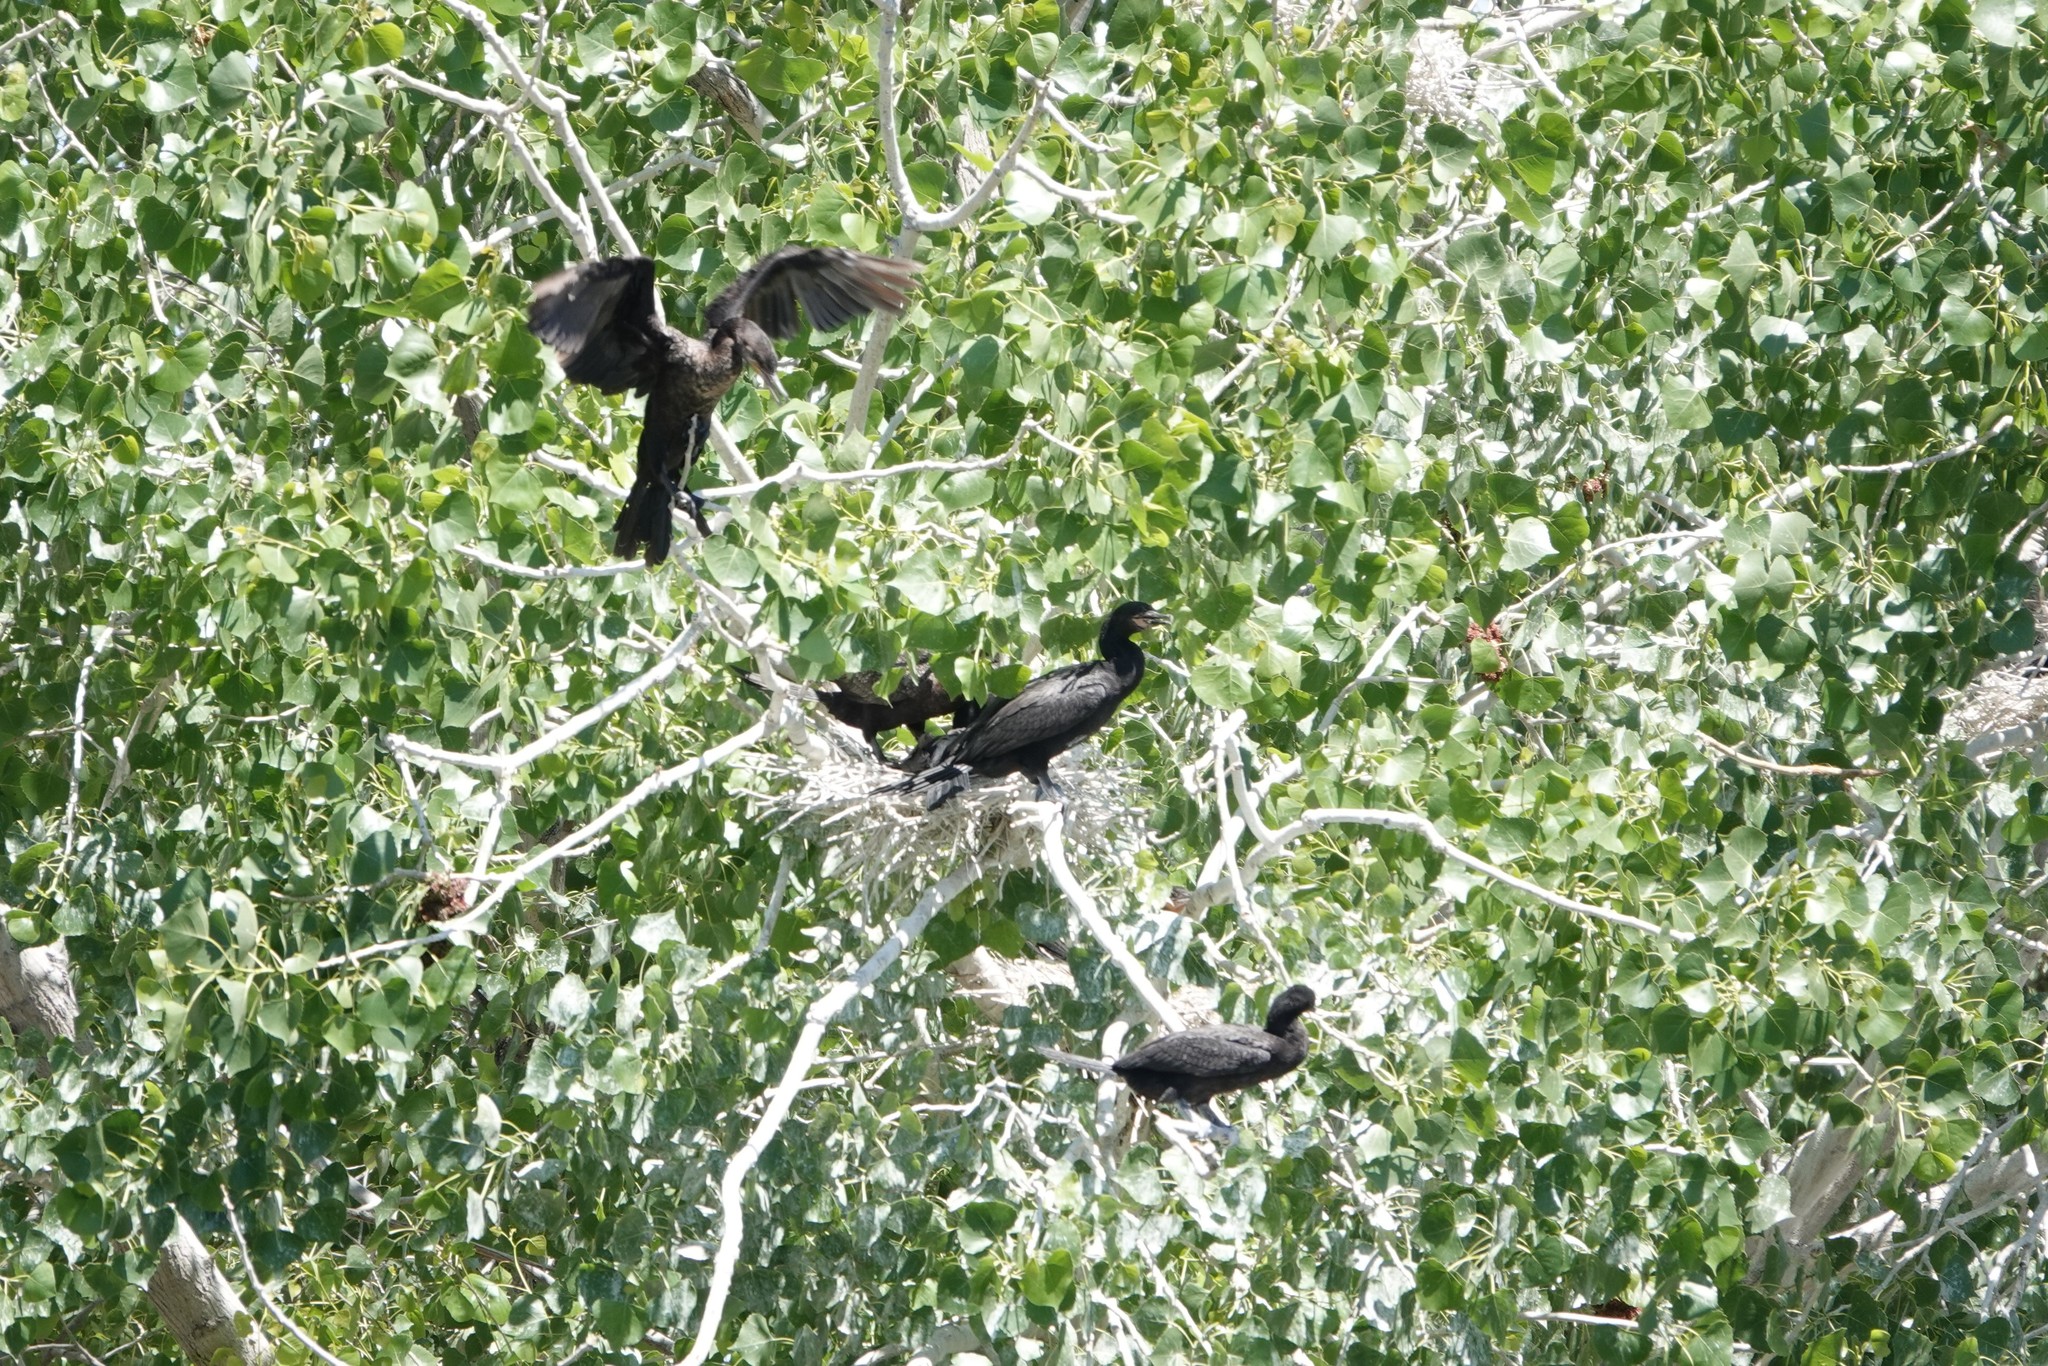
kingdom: Animalia
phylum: Chordata
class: Aves
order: Suliformes
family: Phalacrocoracidae
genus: Phalacrocorax
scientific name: Phalacrocorax brasilianus
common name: Neotropic cormorant
